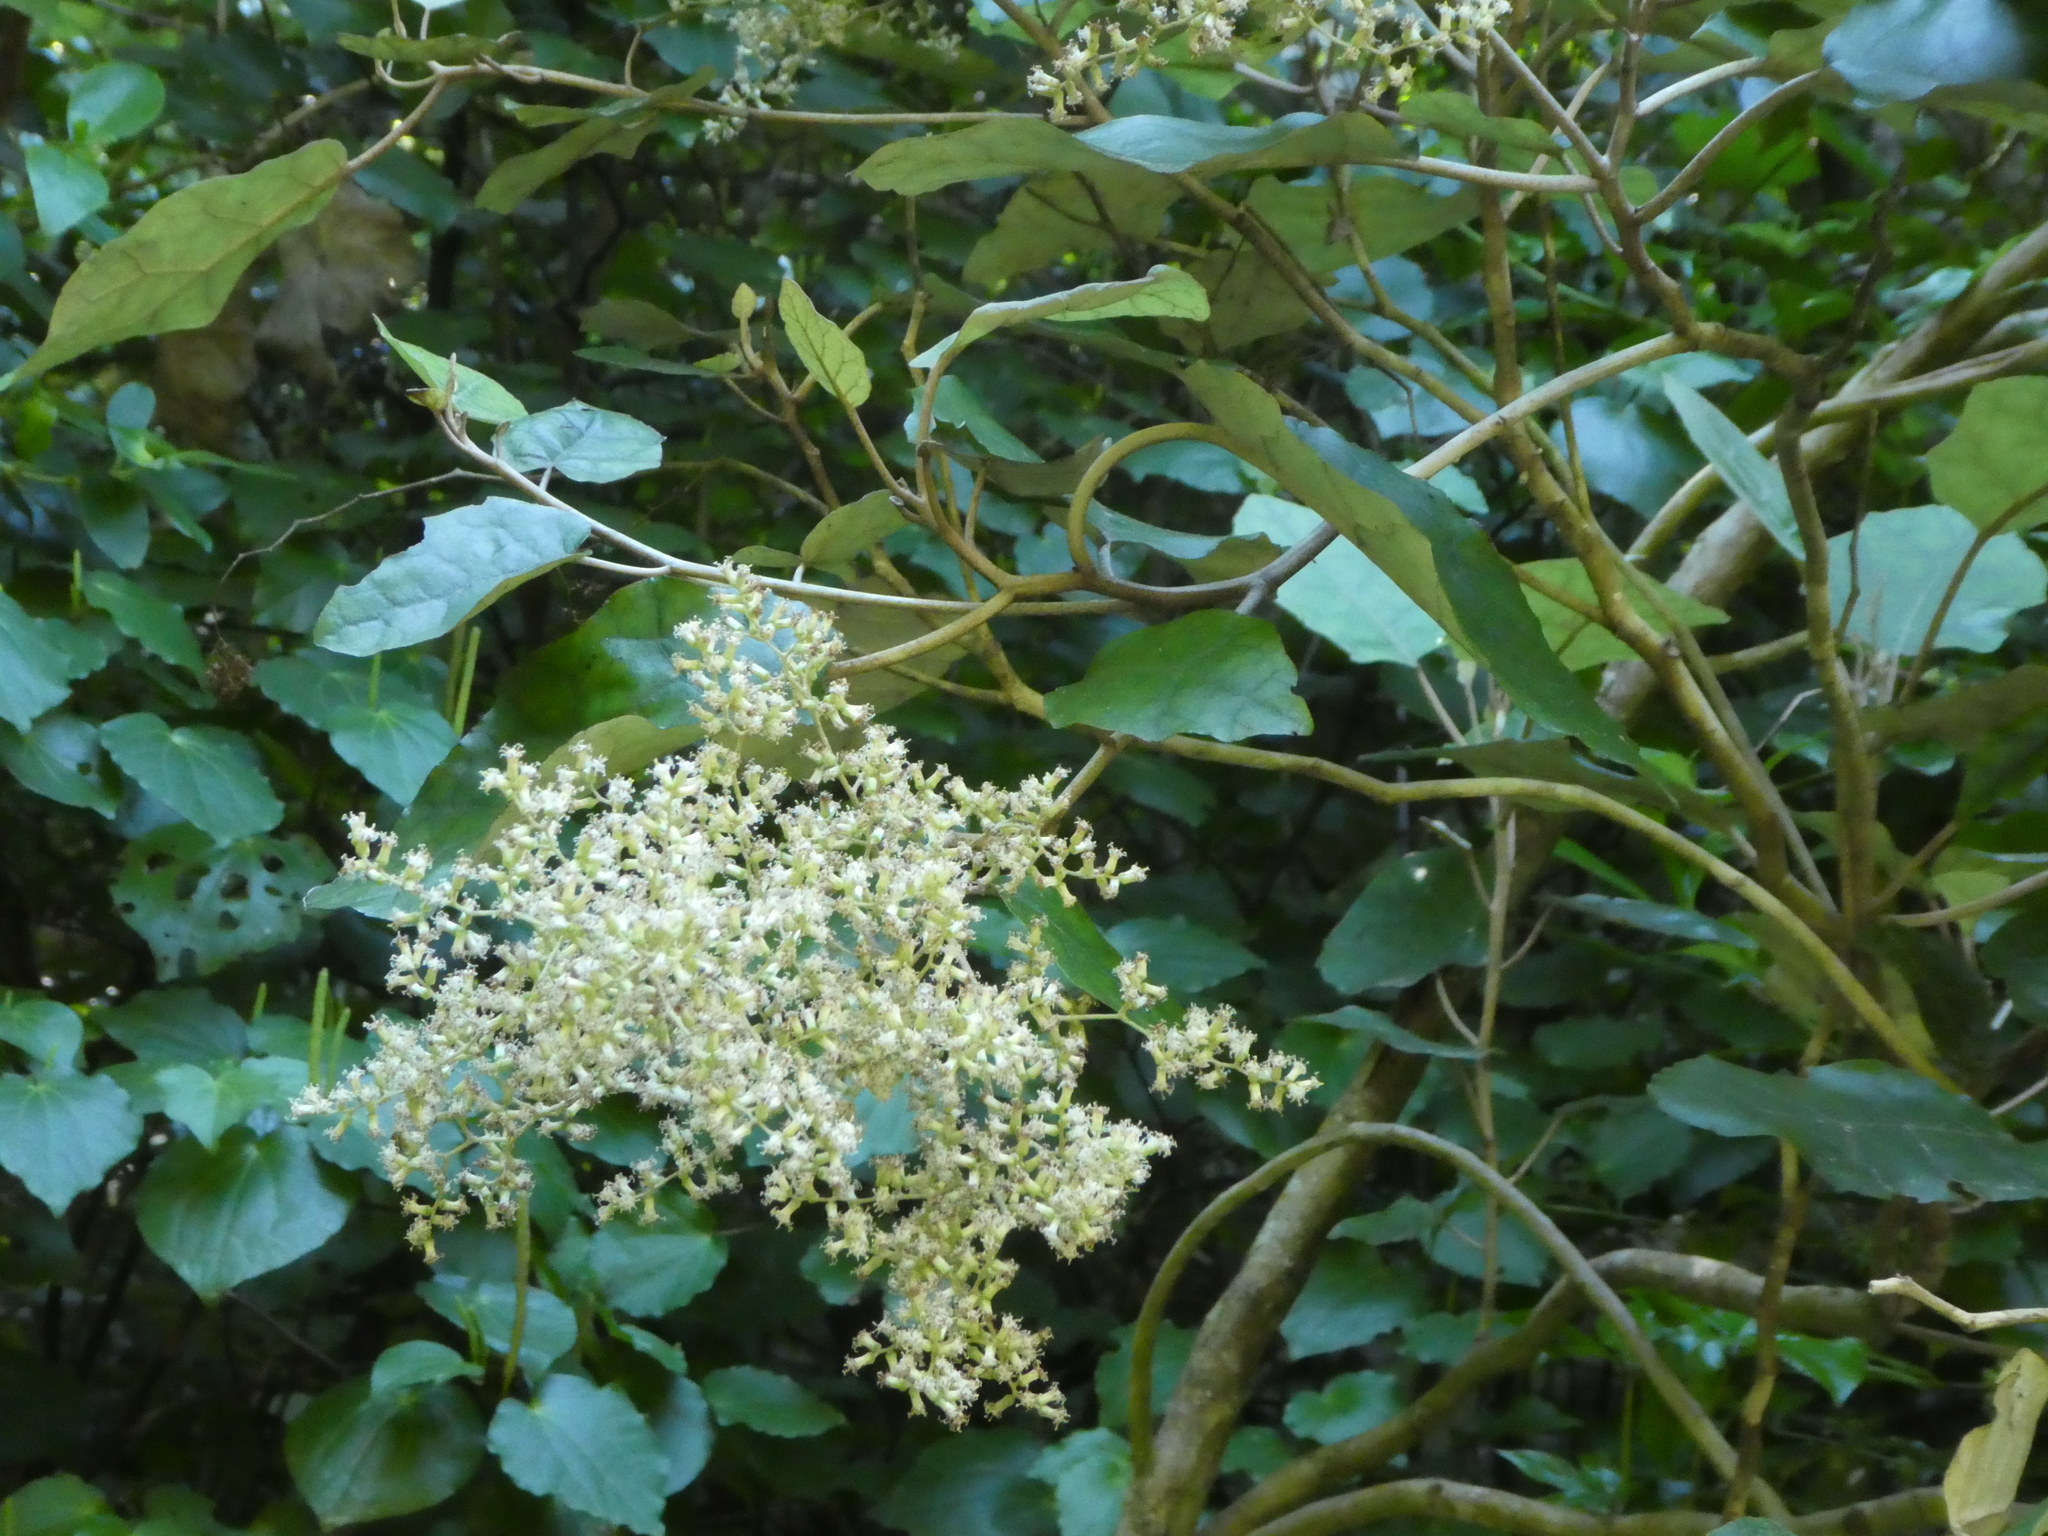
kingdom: Plantae
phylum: Tracheophyta
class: Magnoliopsida
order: Asterales
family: Asteraceae
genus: Brachyglottis
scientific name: Brachyglottis repanda
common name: Hedge ragwort
